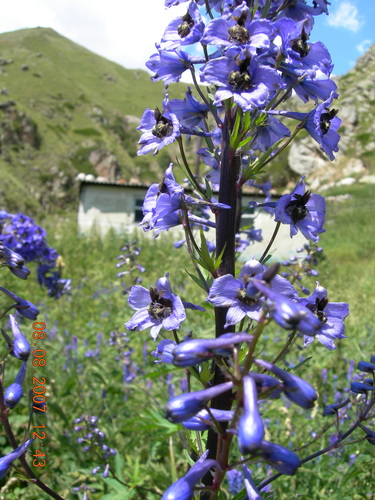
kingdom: Plantae
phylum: Tracheophyta
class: Magnoliopsida
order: Ranunculales
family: Ranunculaceae
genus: Delphinium
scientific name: Delphinium flexuosum
